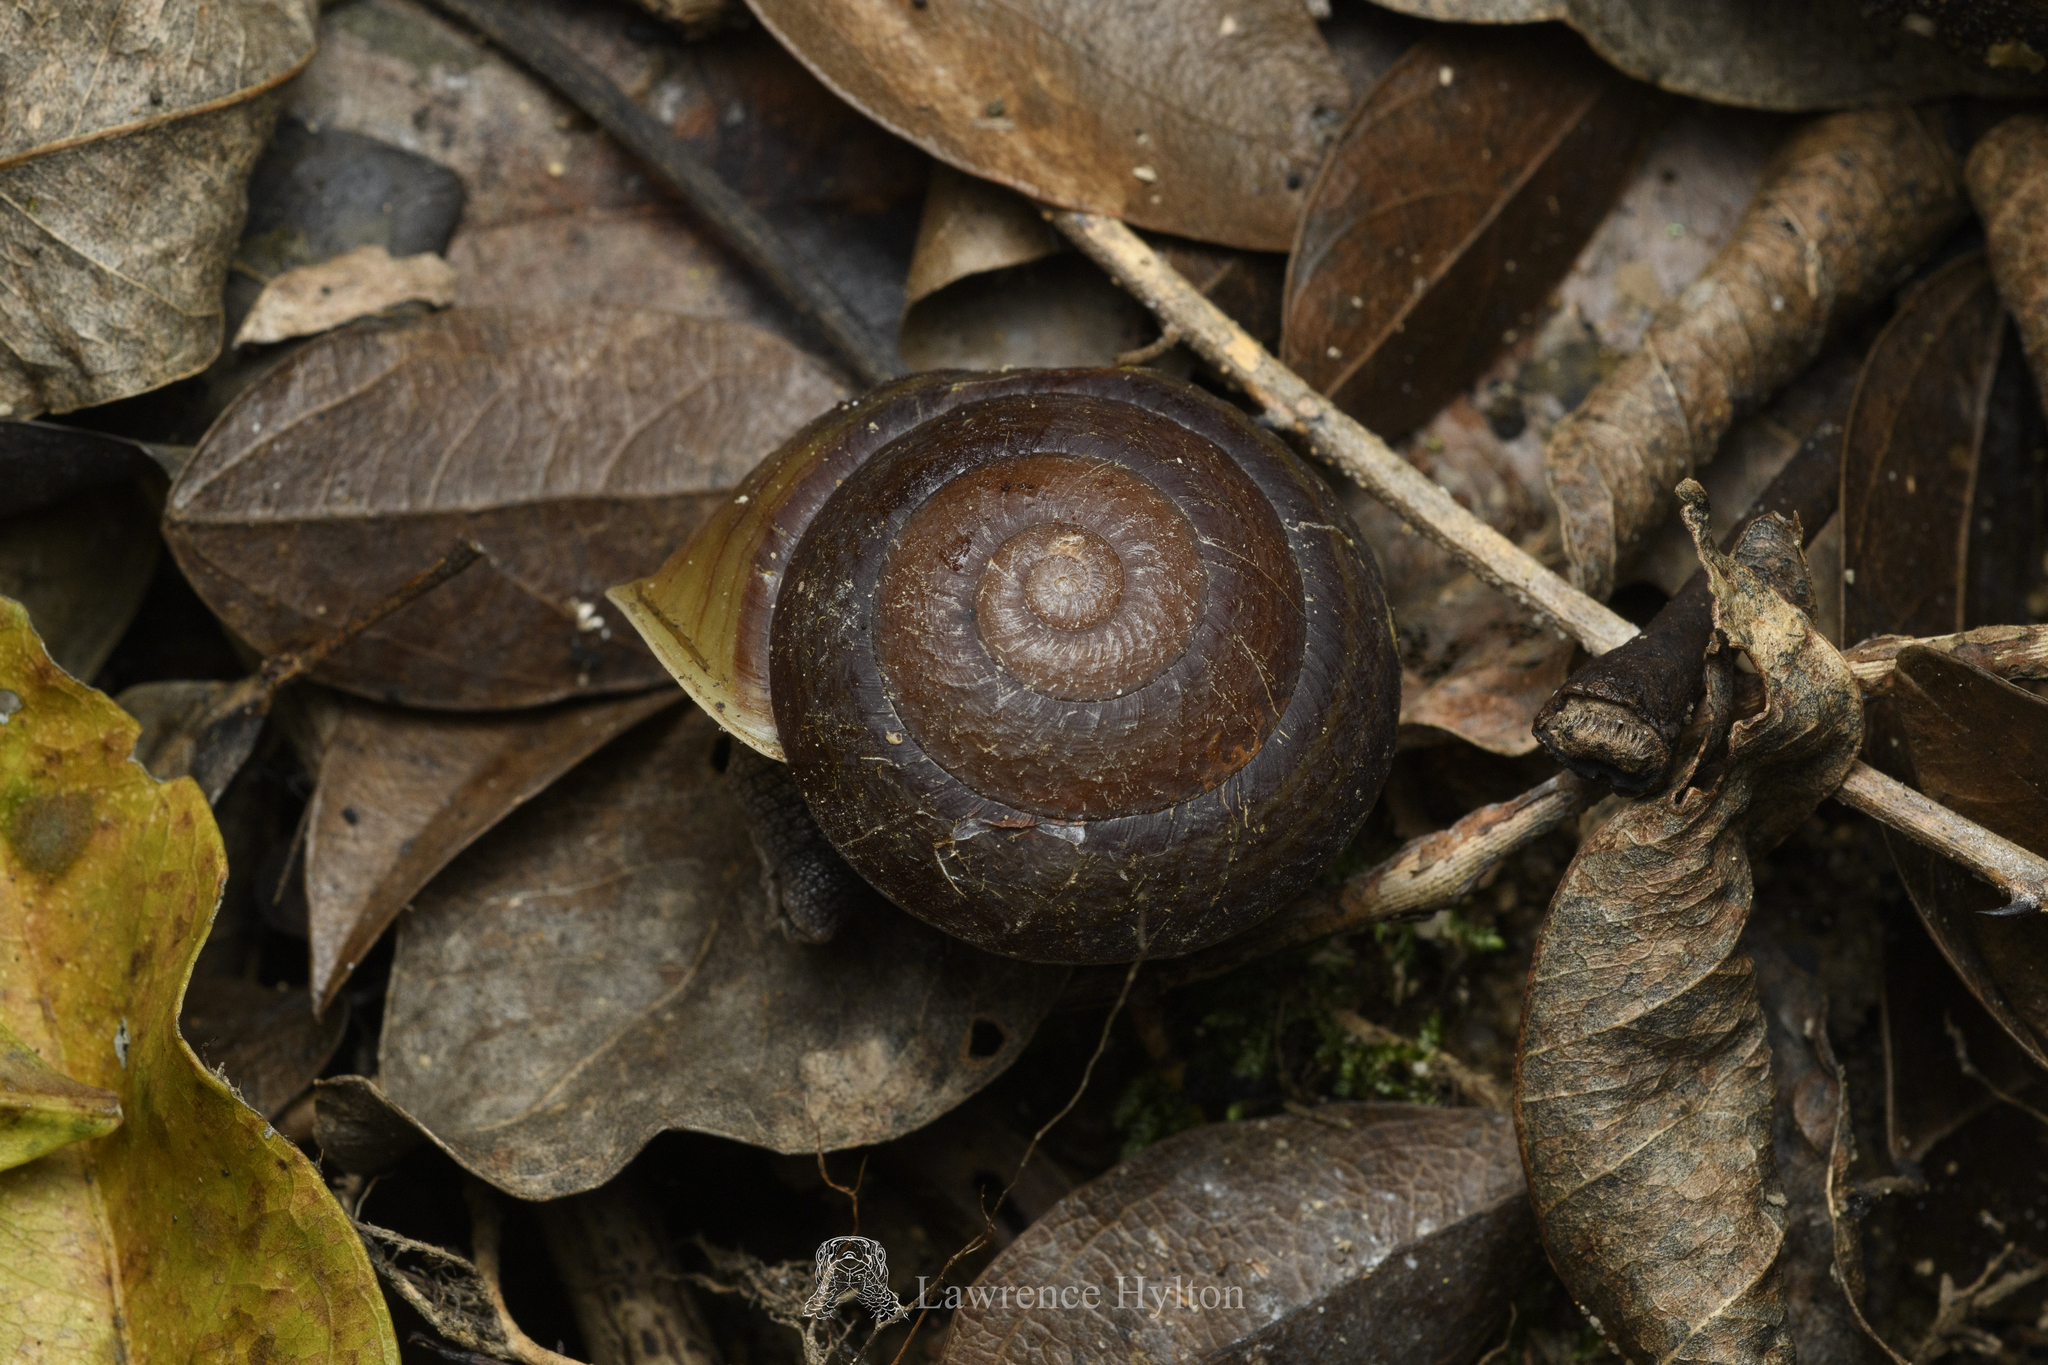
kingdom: Animalia
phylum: Mollusca
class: Gastropoda
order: Stylommatophora
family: Camaenidae
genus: Camaena
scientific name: Camaena cicatricosa
